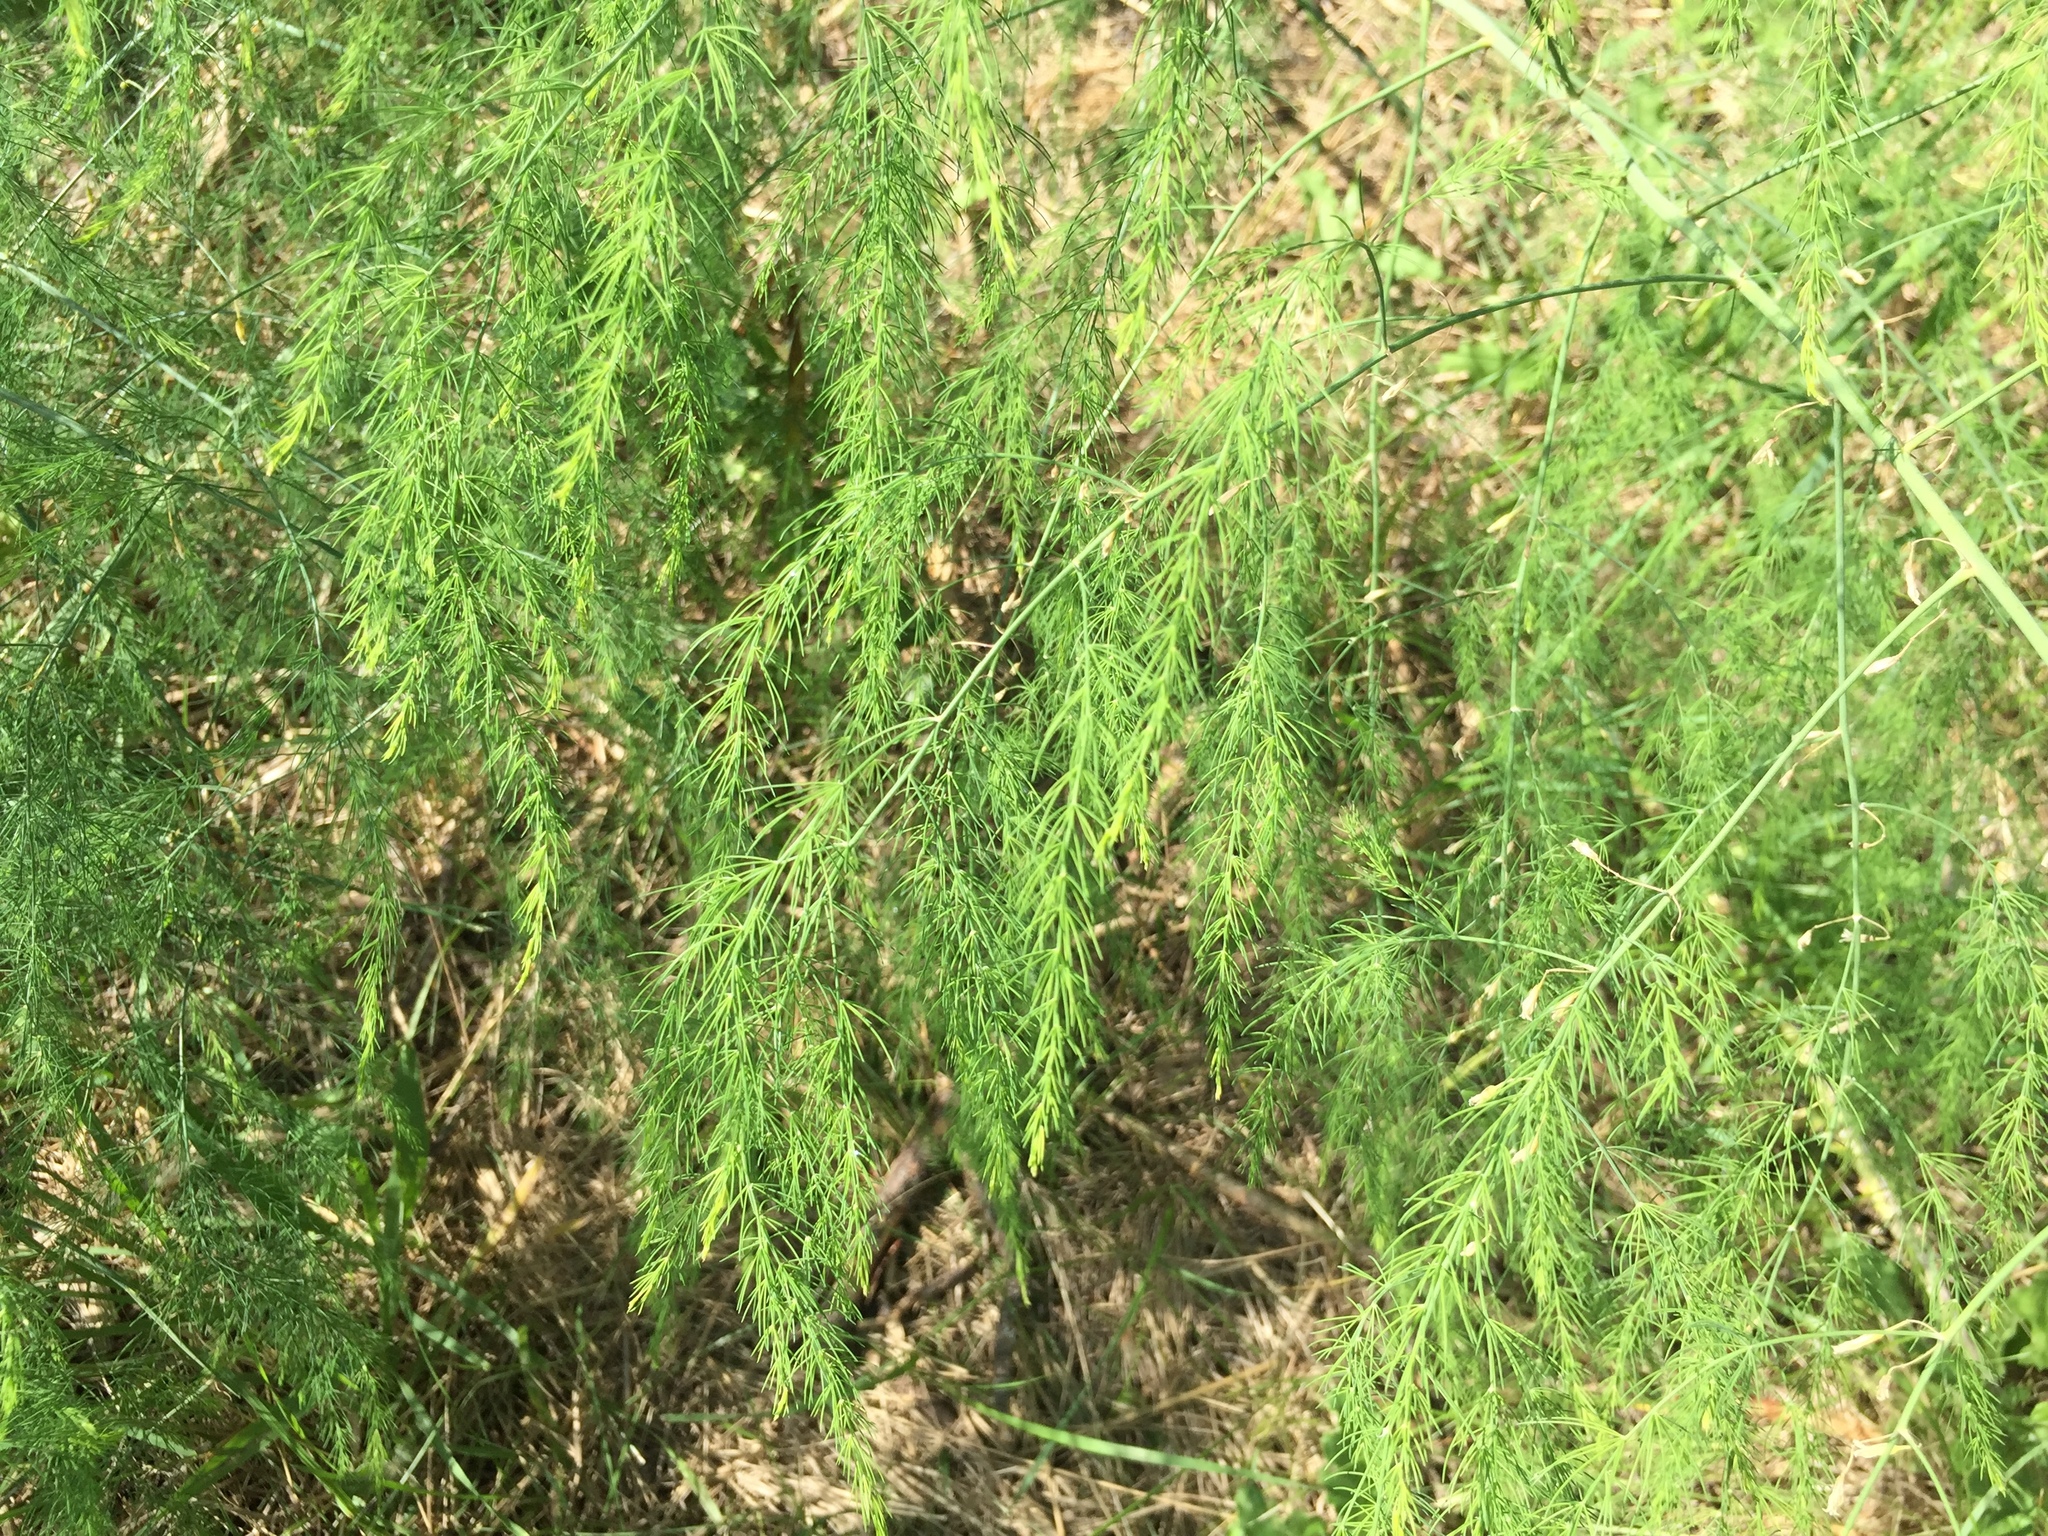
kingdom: Plantae
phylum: Tracheophyta
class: Liliopsida
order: Asparagales
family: Asparagaceae
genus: Asparagus
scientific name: Asparagus officinalis
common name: Garden asparagus
